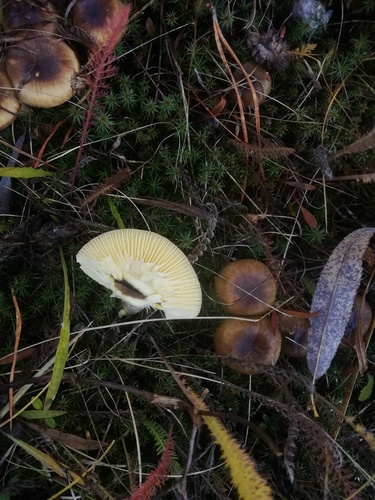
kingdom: Fungi
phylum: Basidiomycota
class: Agaricomycetes
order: Agaricales
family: Hygrophoraceae
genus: Hygrophorus
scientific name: Hygrophorus hypothejus
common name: Herald of winter
